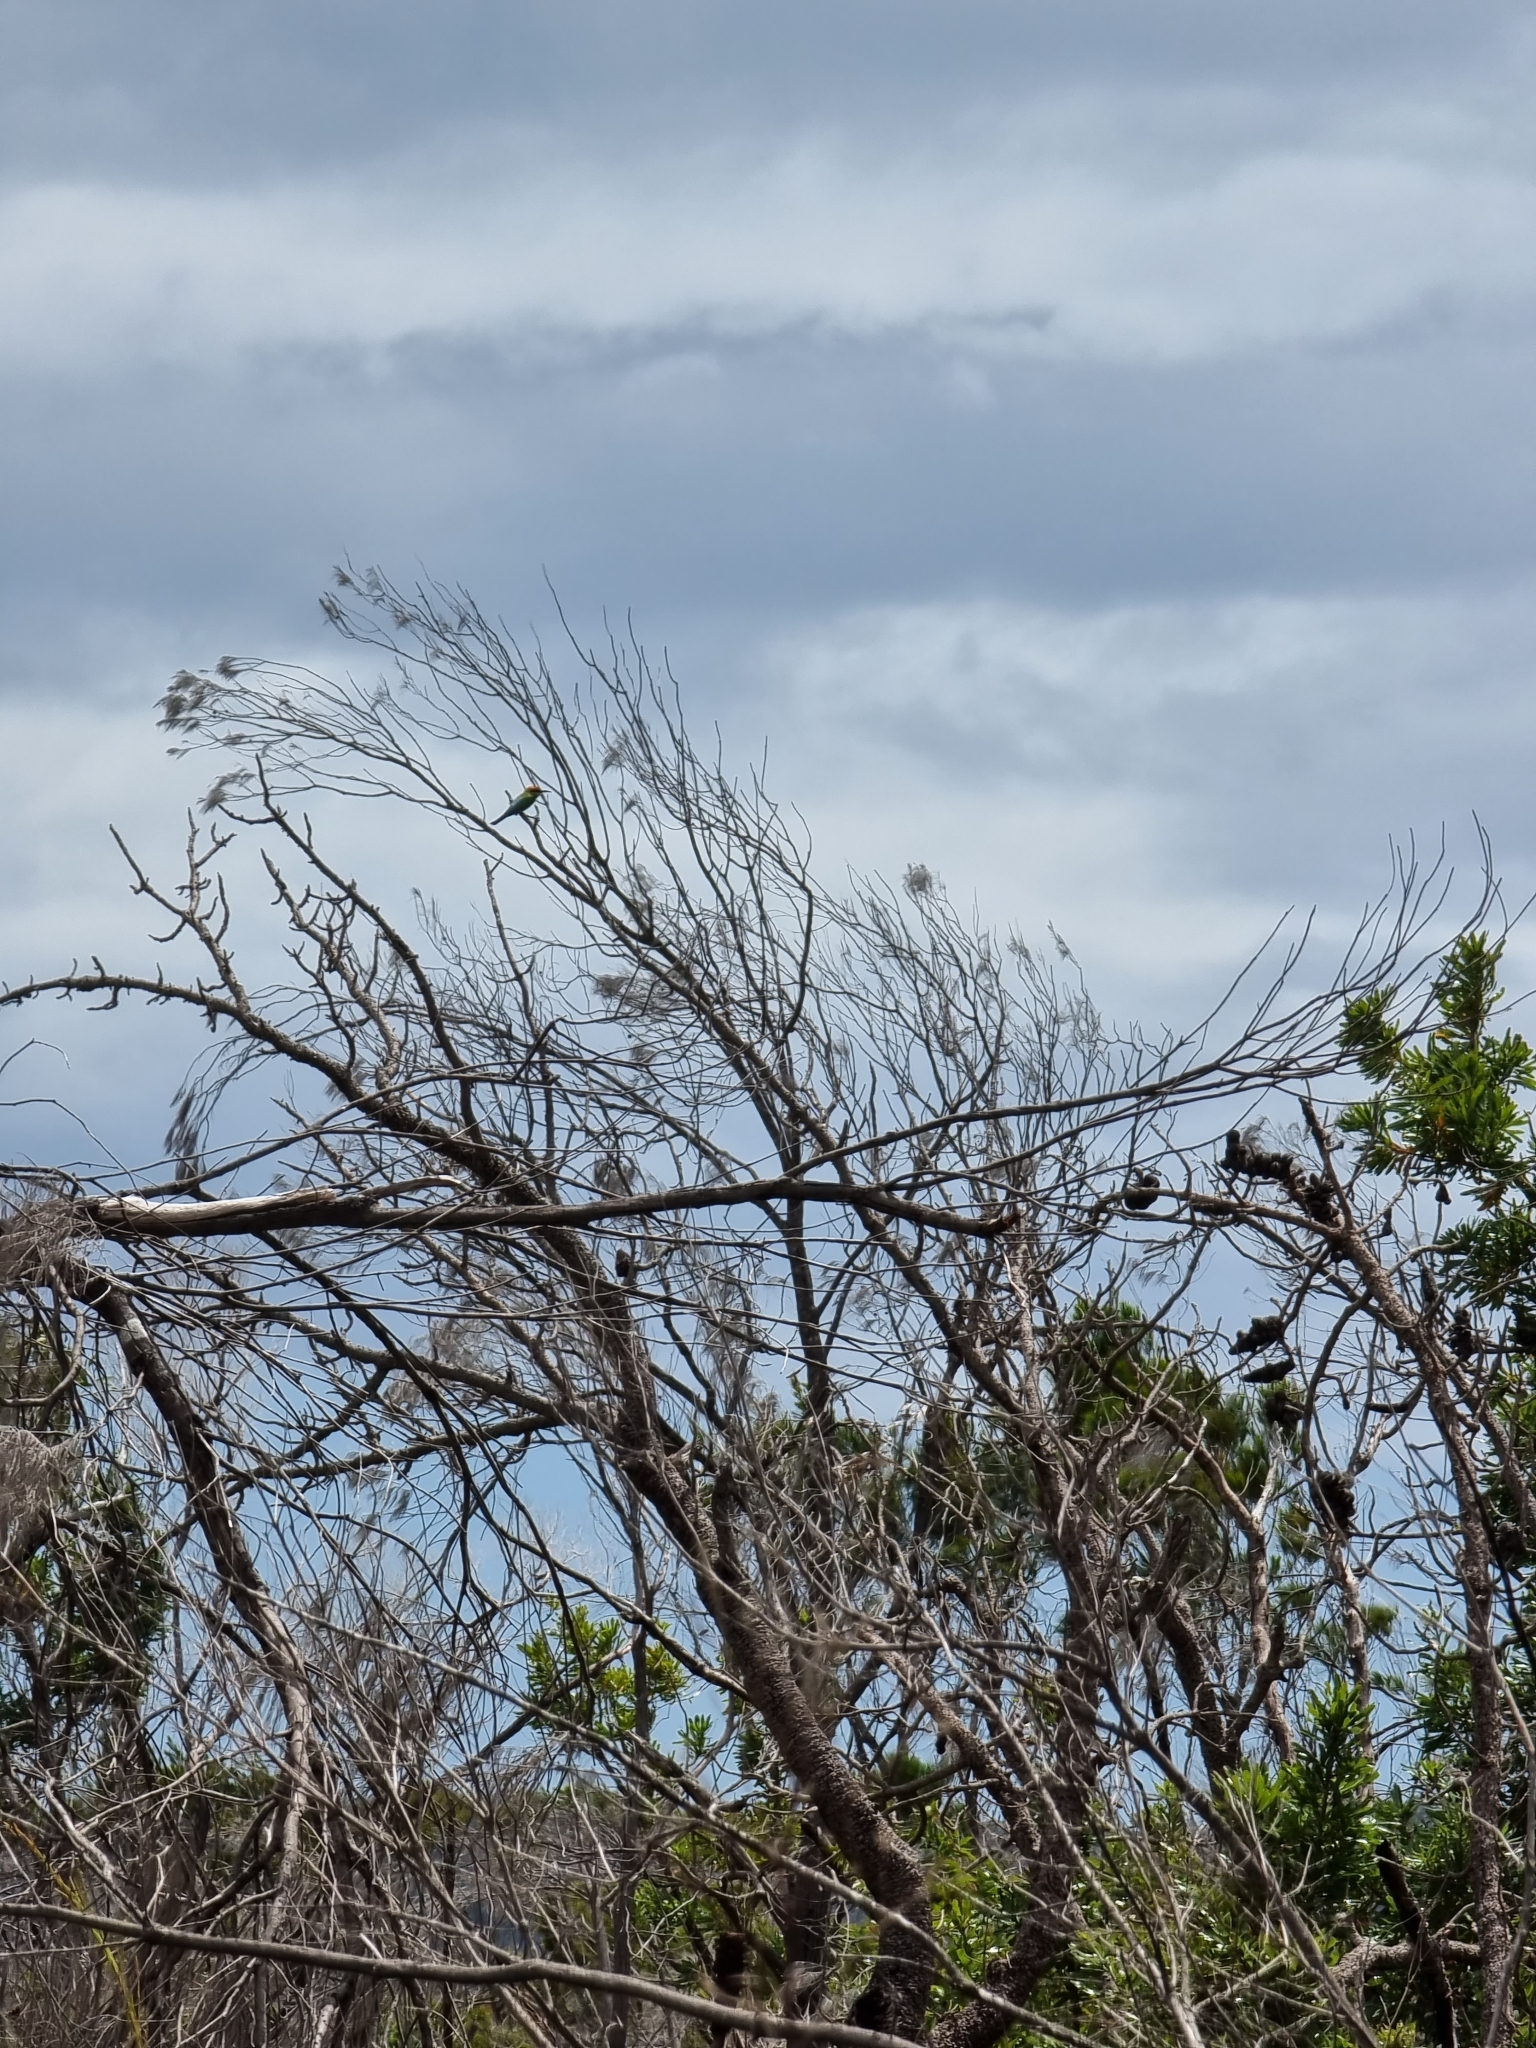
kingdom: Animalia
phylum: Chordata
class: Aves
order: Coraciiformes
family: Meropidae
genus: Merops
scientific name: Merops ornatus
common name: Rainbow bee-eater
